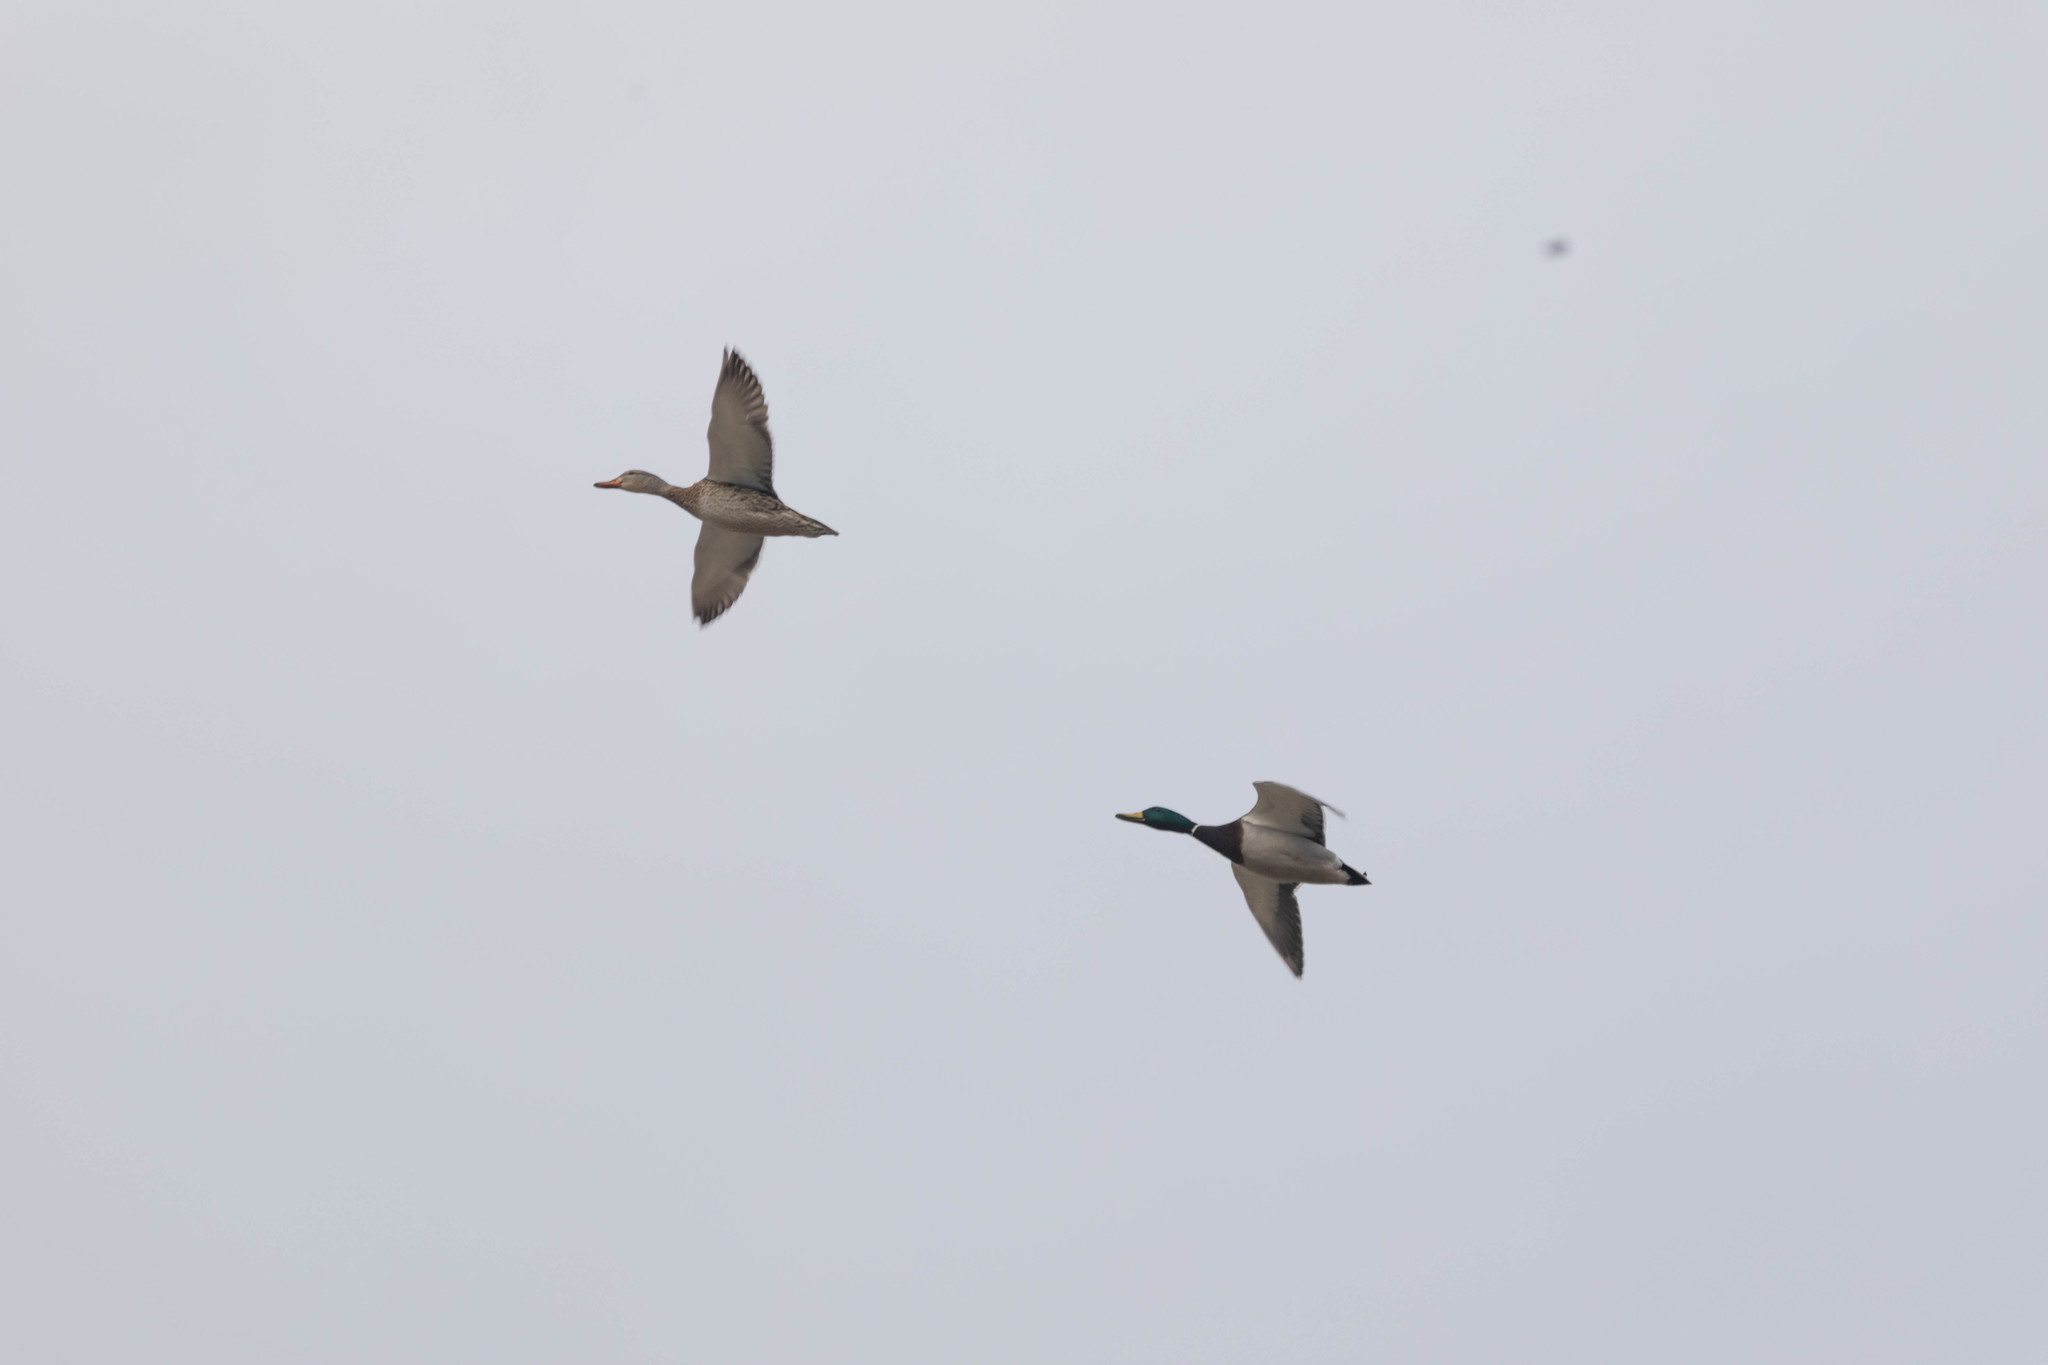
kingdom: Animalia
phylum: Chordata
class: Aves
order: Anseriformes
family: Anatidae
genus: Anas
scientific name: Anas platyrhynchos
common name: Mallard
